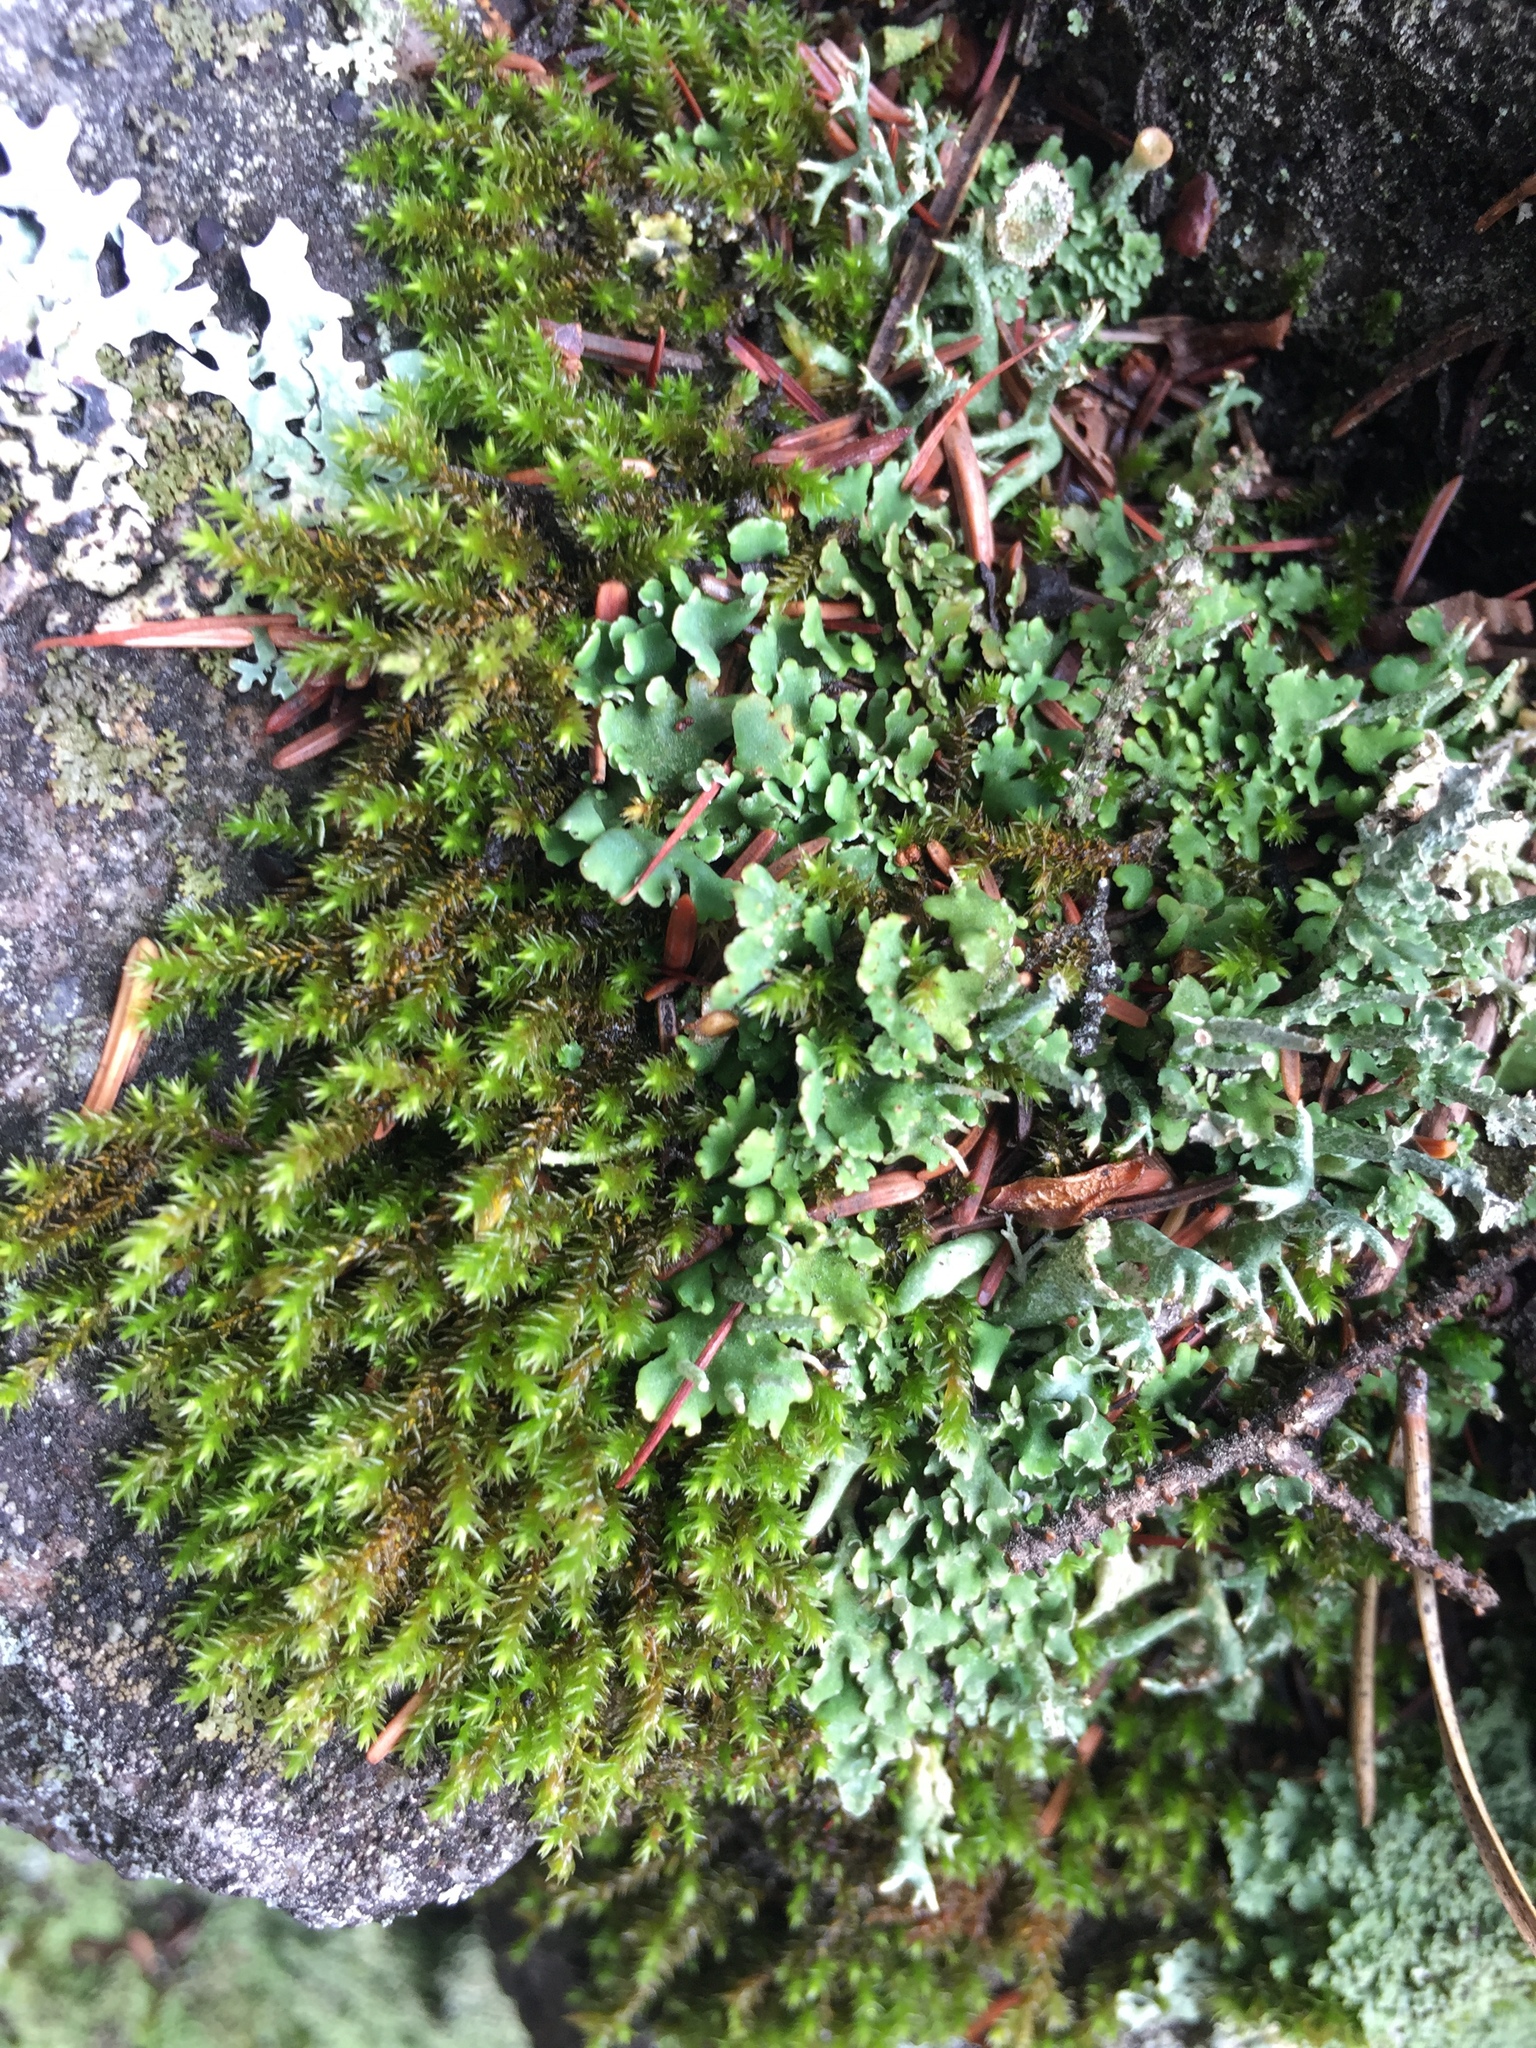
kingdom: Plantae
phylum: Bryophyta
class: Bryopsida
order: Hedwigiales
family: Hedwigiaceae
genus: Hedwigia
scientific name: Hedwigia ciliata
